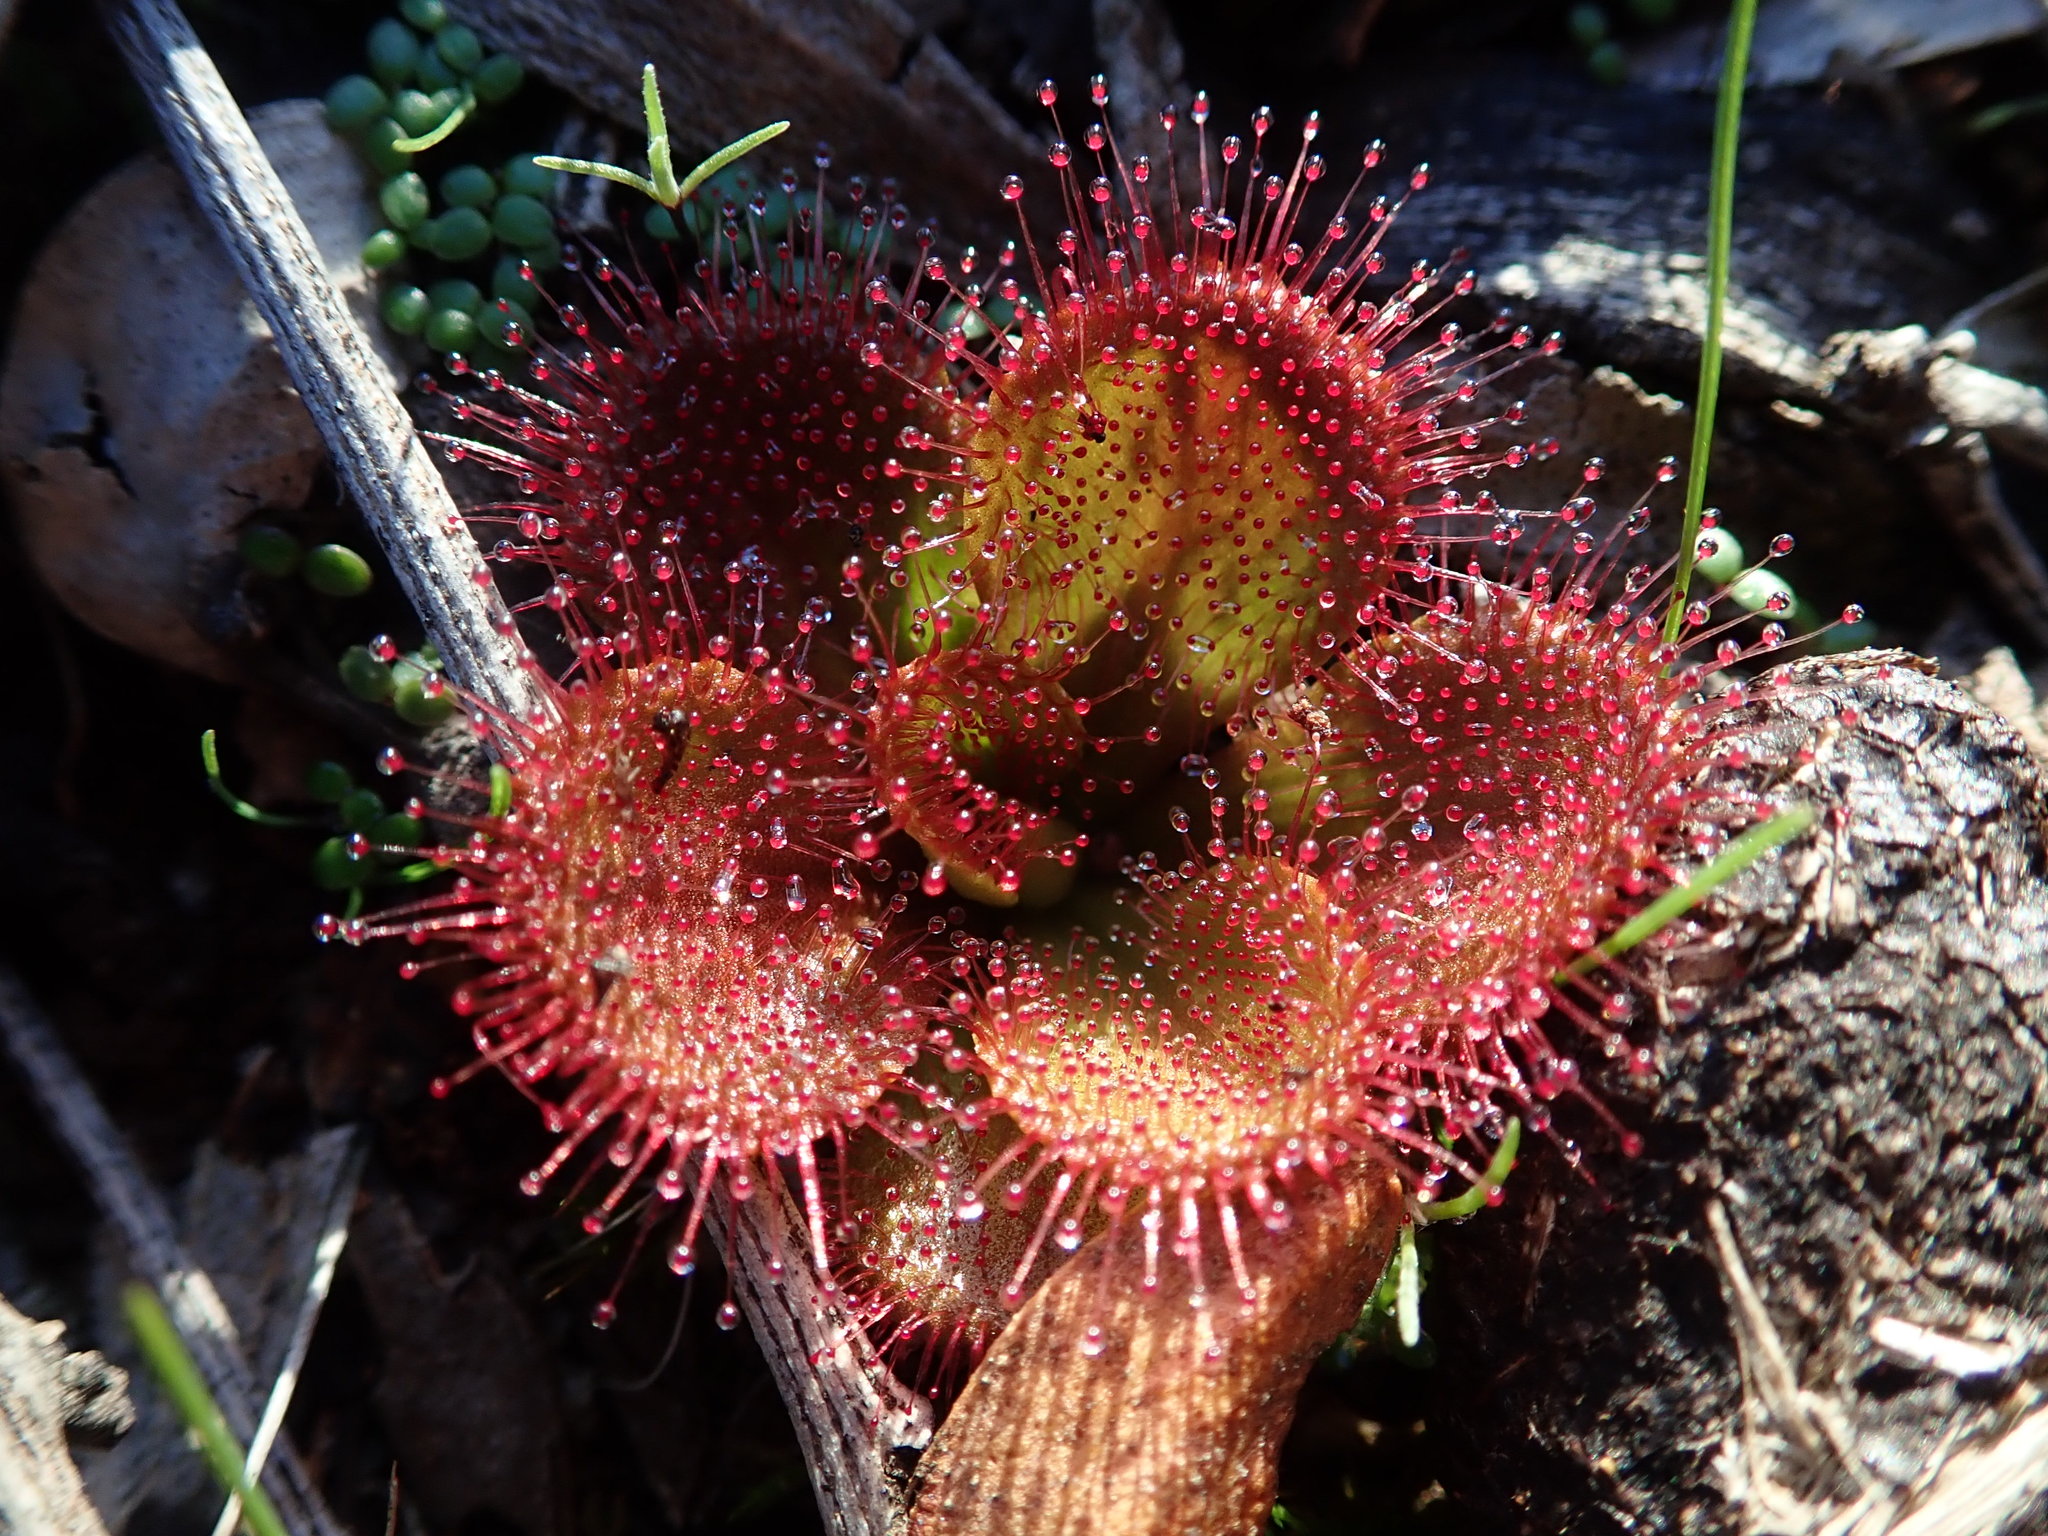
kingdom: Plantae
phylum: Tracheophyta
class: Magnoliopsida
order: Caryophyllales
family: Droseraceae
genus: Drosera
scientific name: Drosera aberrans
